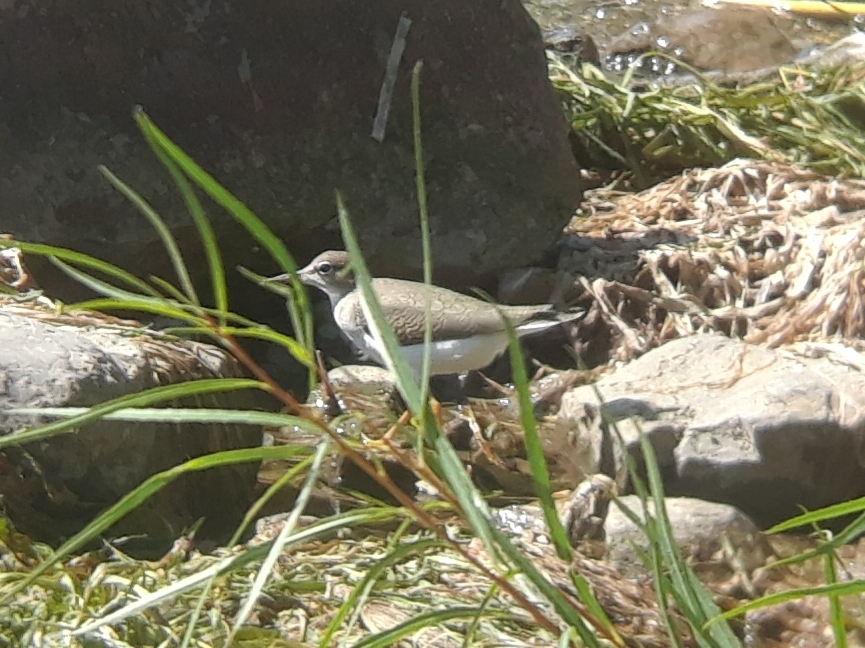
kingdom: Animalia
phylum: Chordata
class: Aves
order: Charadriiformes
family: Scolopacidae
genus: Actitis
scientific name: Actitis macularius
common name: Spotted sandpiper
